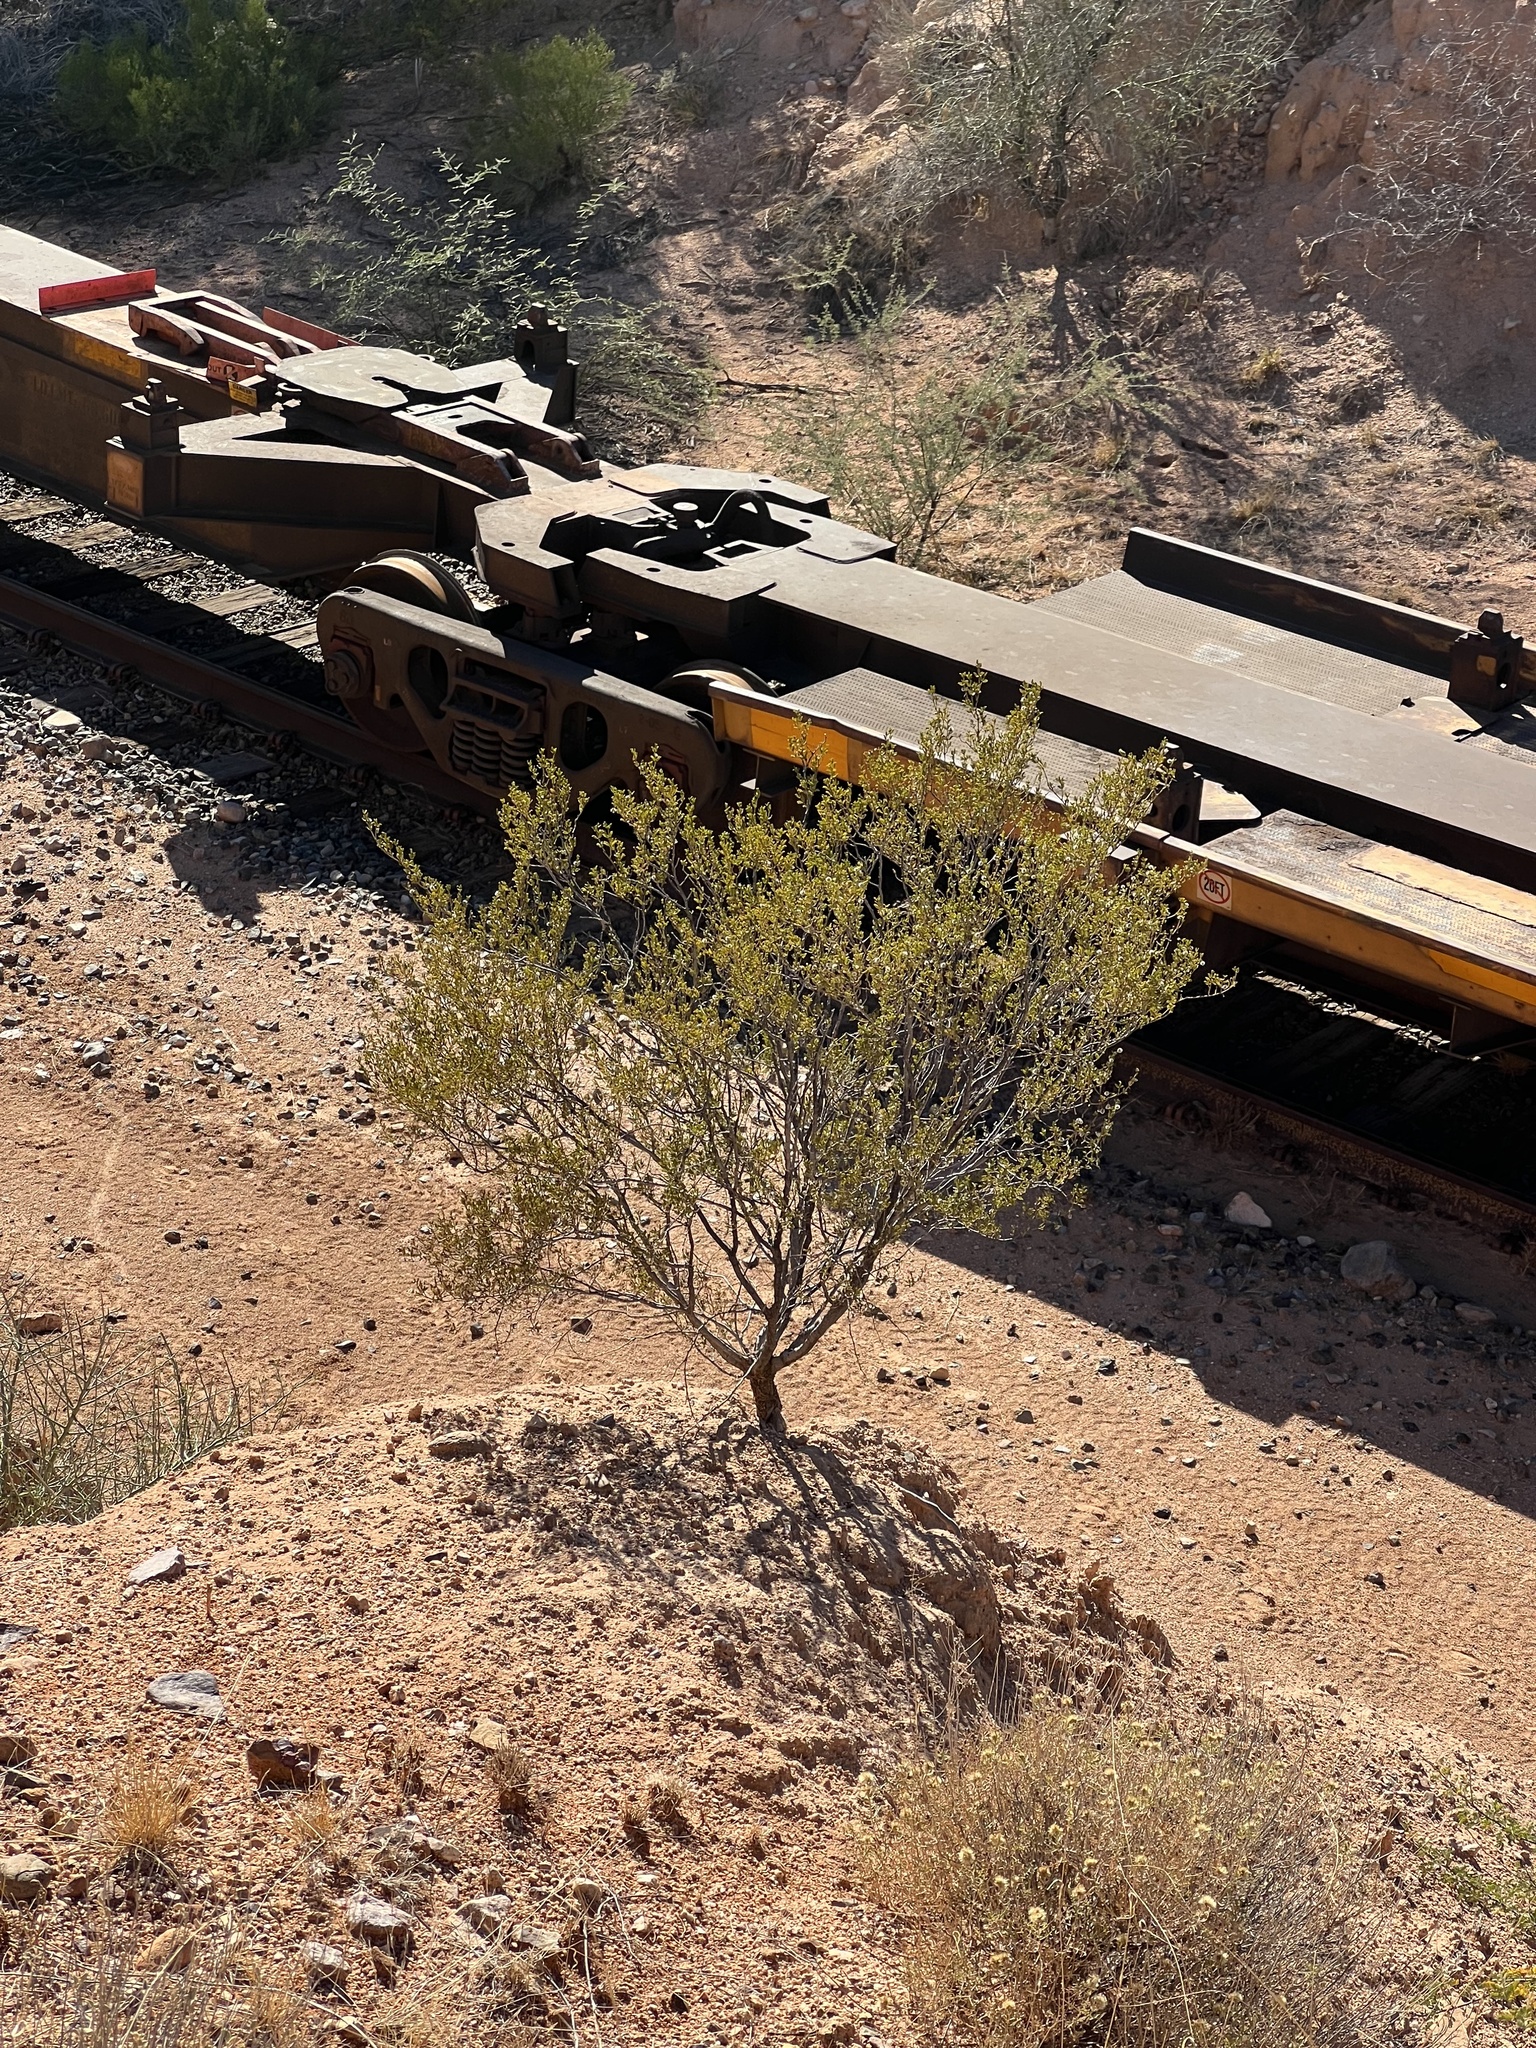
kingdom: Plantae
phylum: Tracheophyta
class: Magnoliopsida
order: Zygophyllales
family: Zygophyllaceae
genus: Larrea
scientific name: Larrea tridentata
